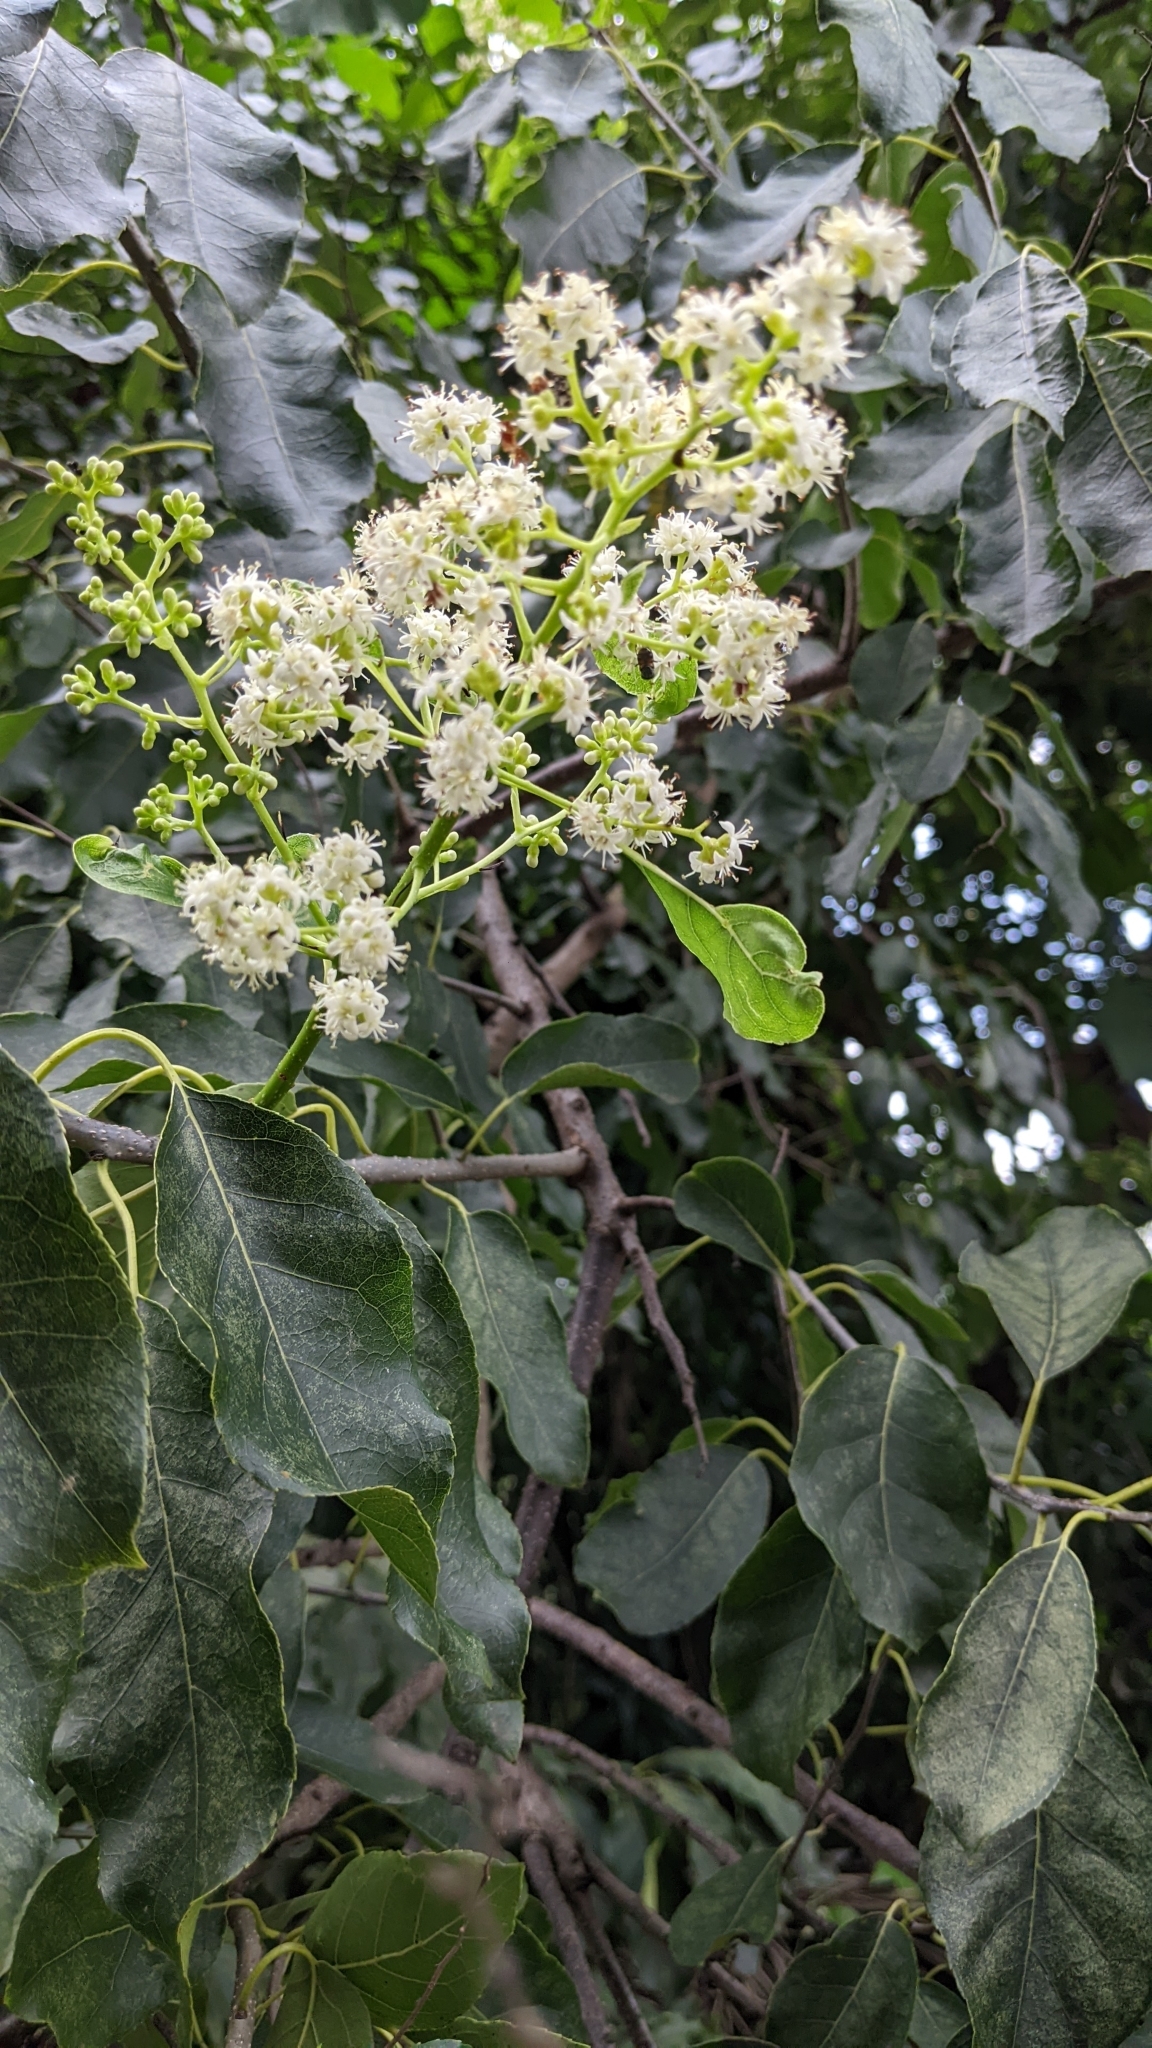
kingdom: Plantae
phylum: Tracheophyta
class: Magnoliopsida
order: Boraginales
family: Ehretiaceae
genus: Ehretia
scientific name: Ehretia acuminata
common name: Kodo wood
